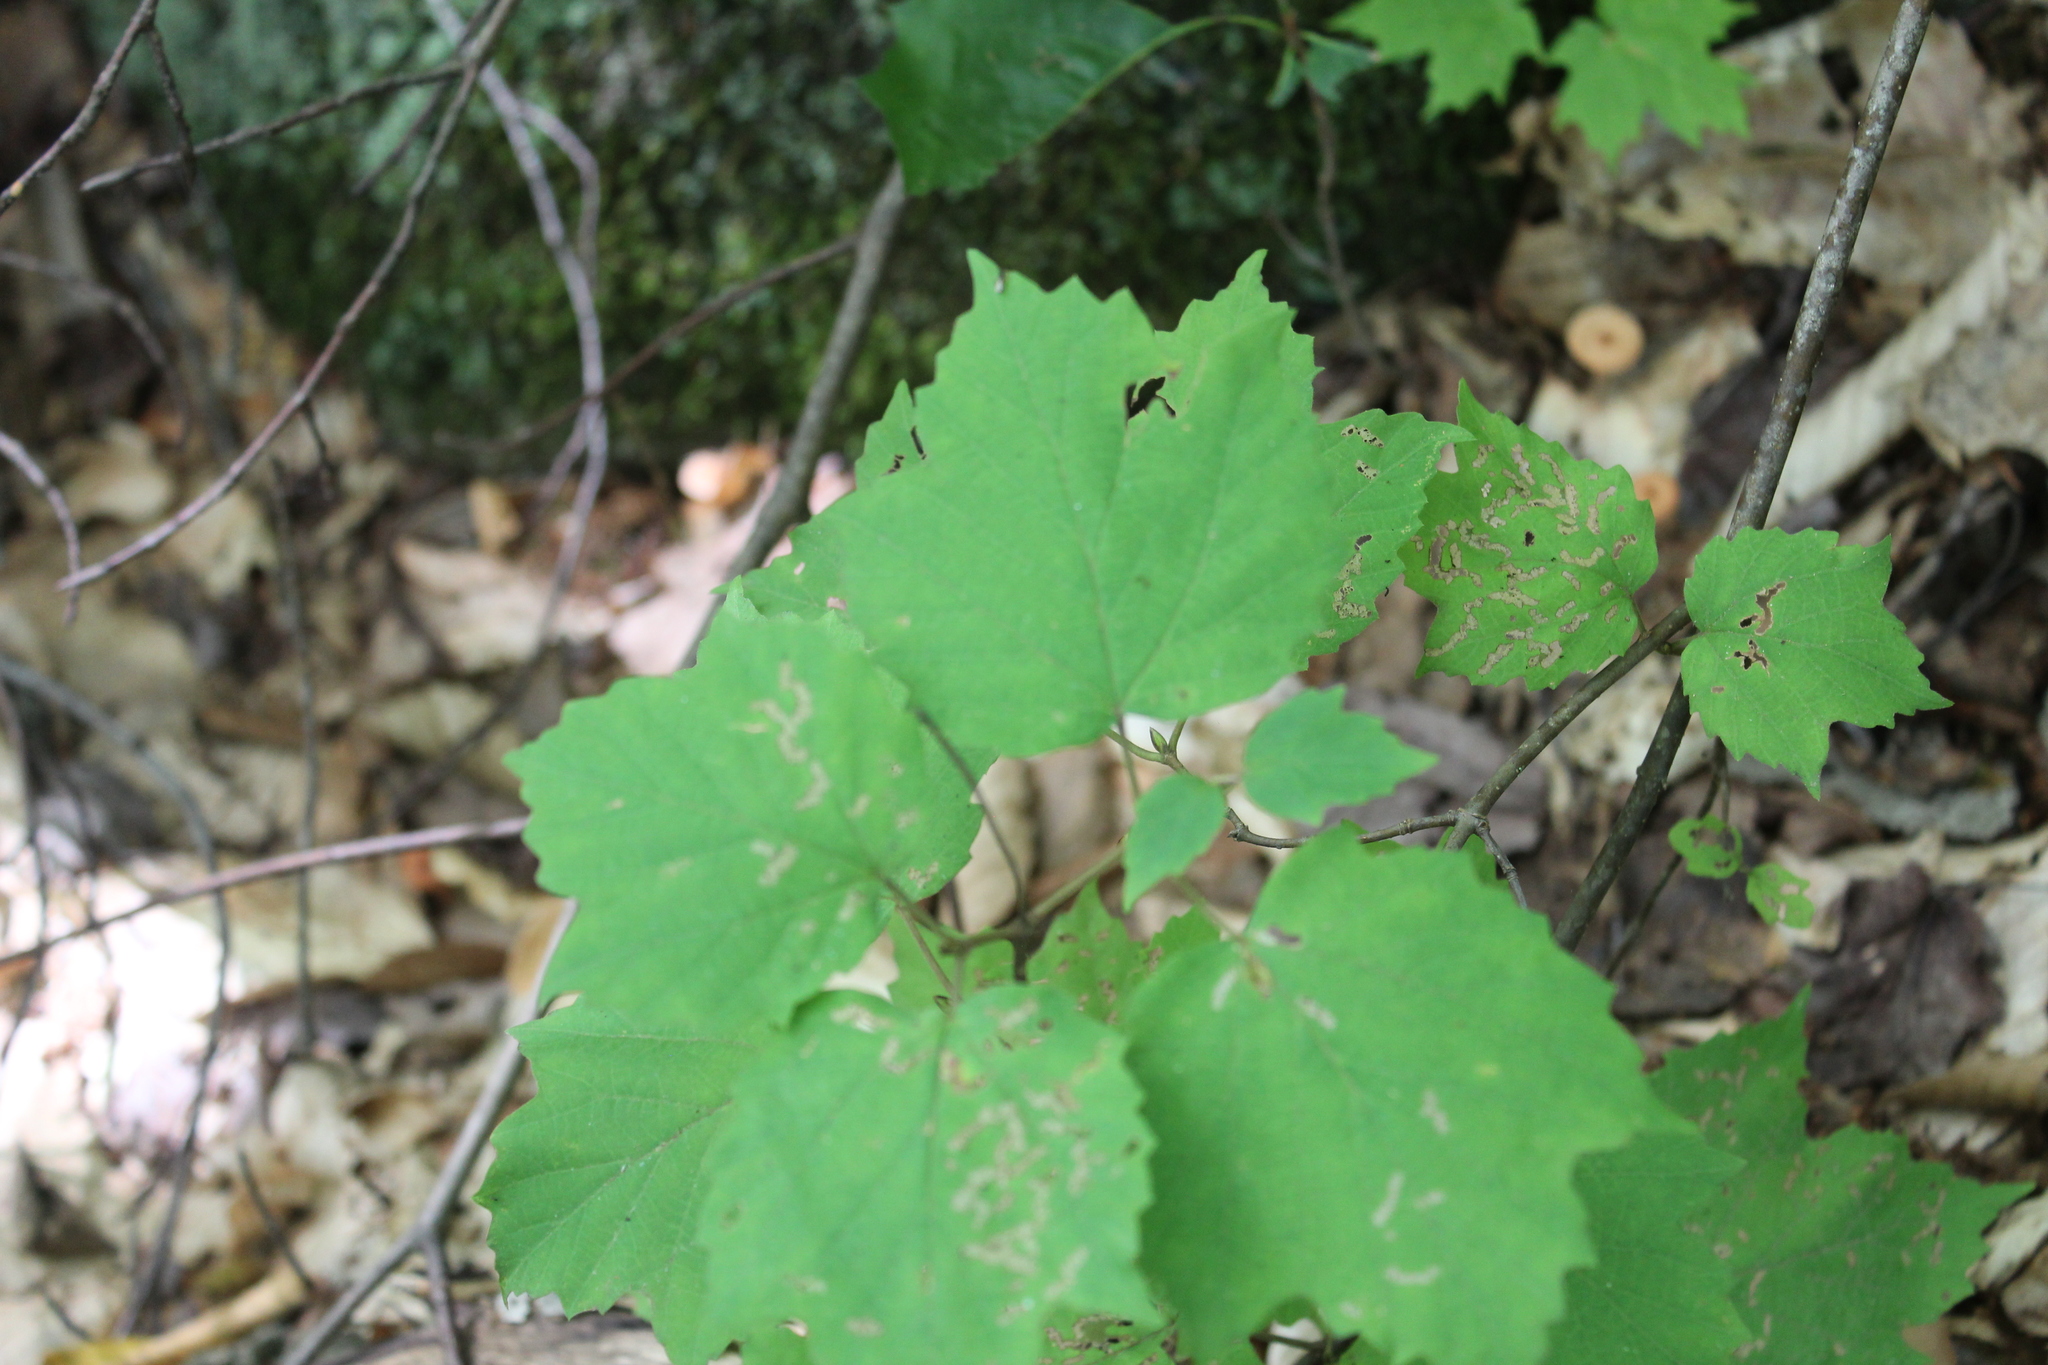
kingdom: Plantae
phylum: Tracheophyta
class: Magnoliopsida
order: Dipsacales
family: Viburnaceae
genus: Viburnum
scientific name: Viburnum acerifolium
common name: Dockmackie
